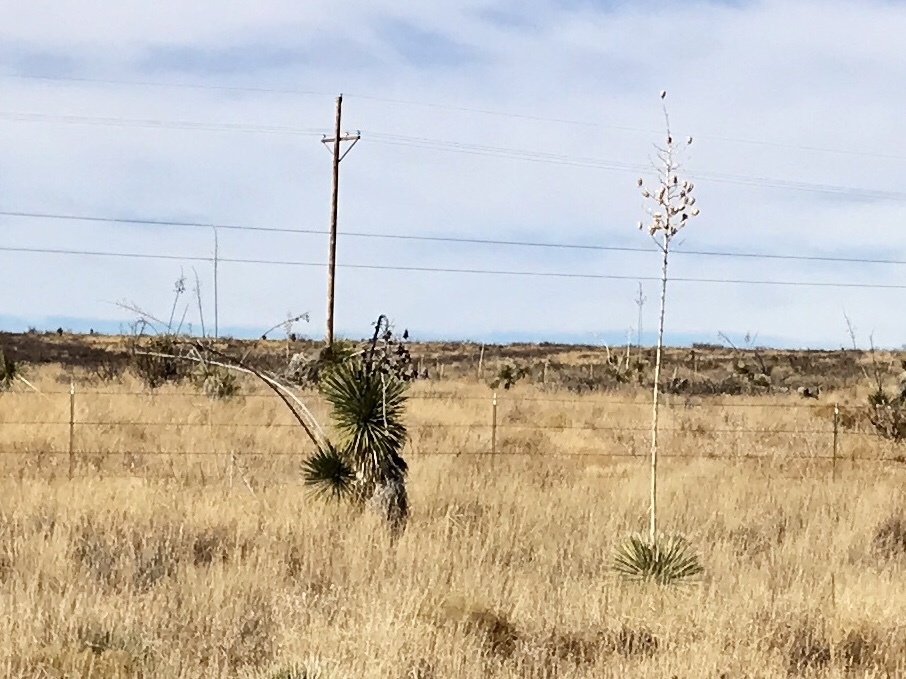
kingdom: Plantae
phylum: Tracheophyta
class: Liliopsida
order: Asparagales
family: Asparagaceae
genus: Yucca
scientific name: Yucca elata
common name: Palmella
